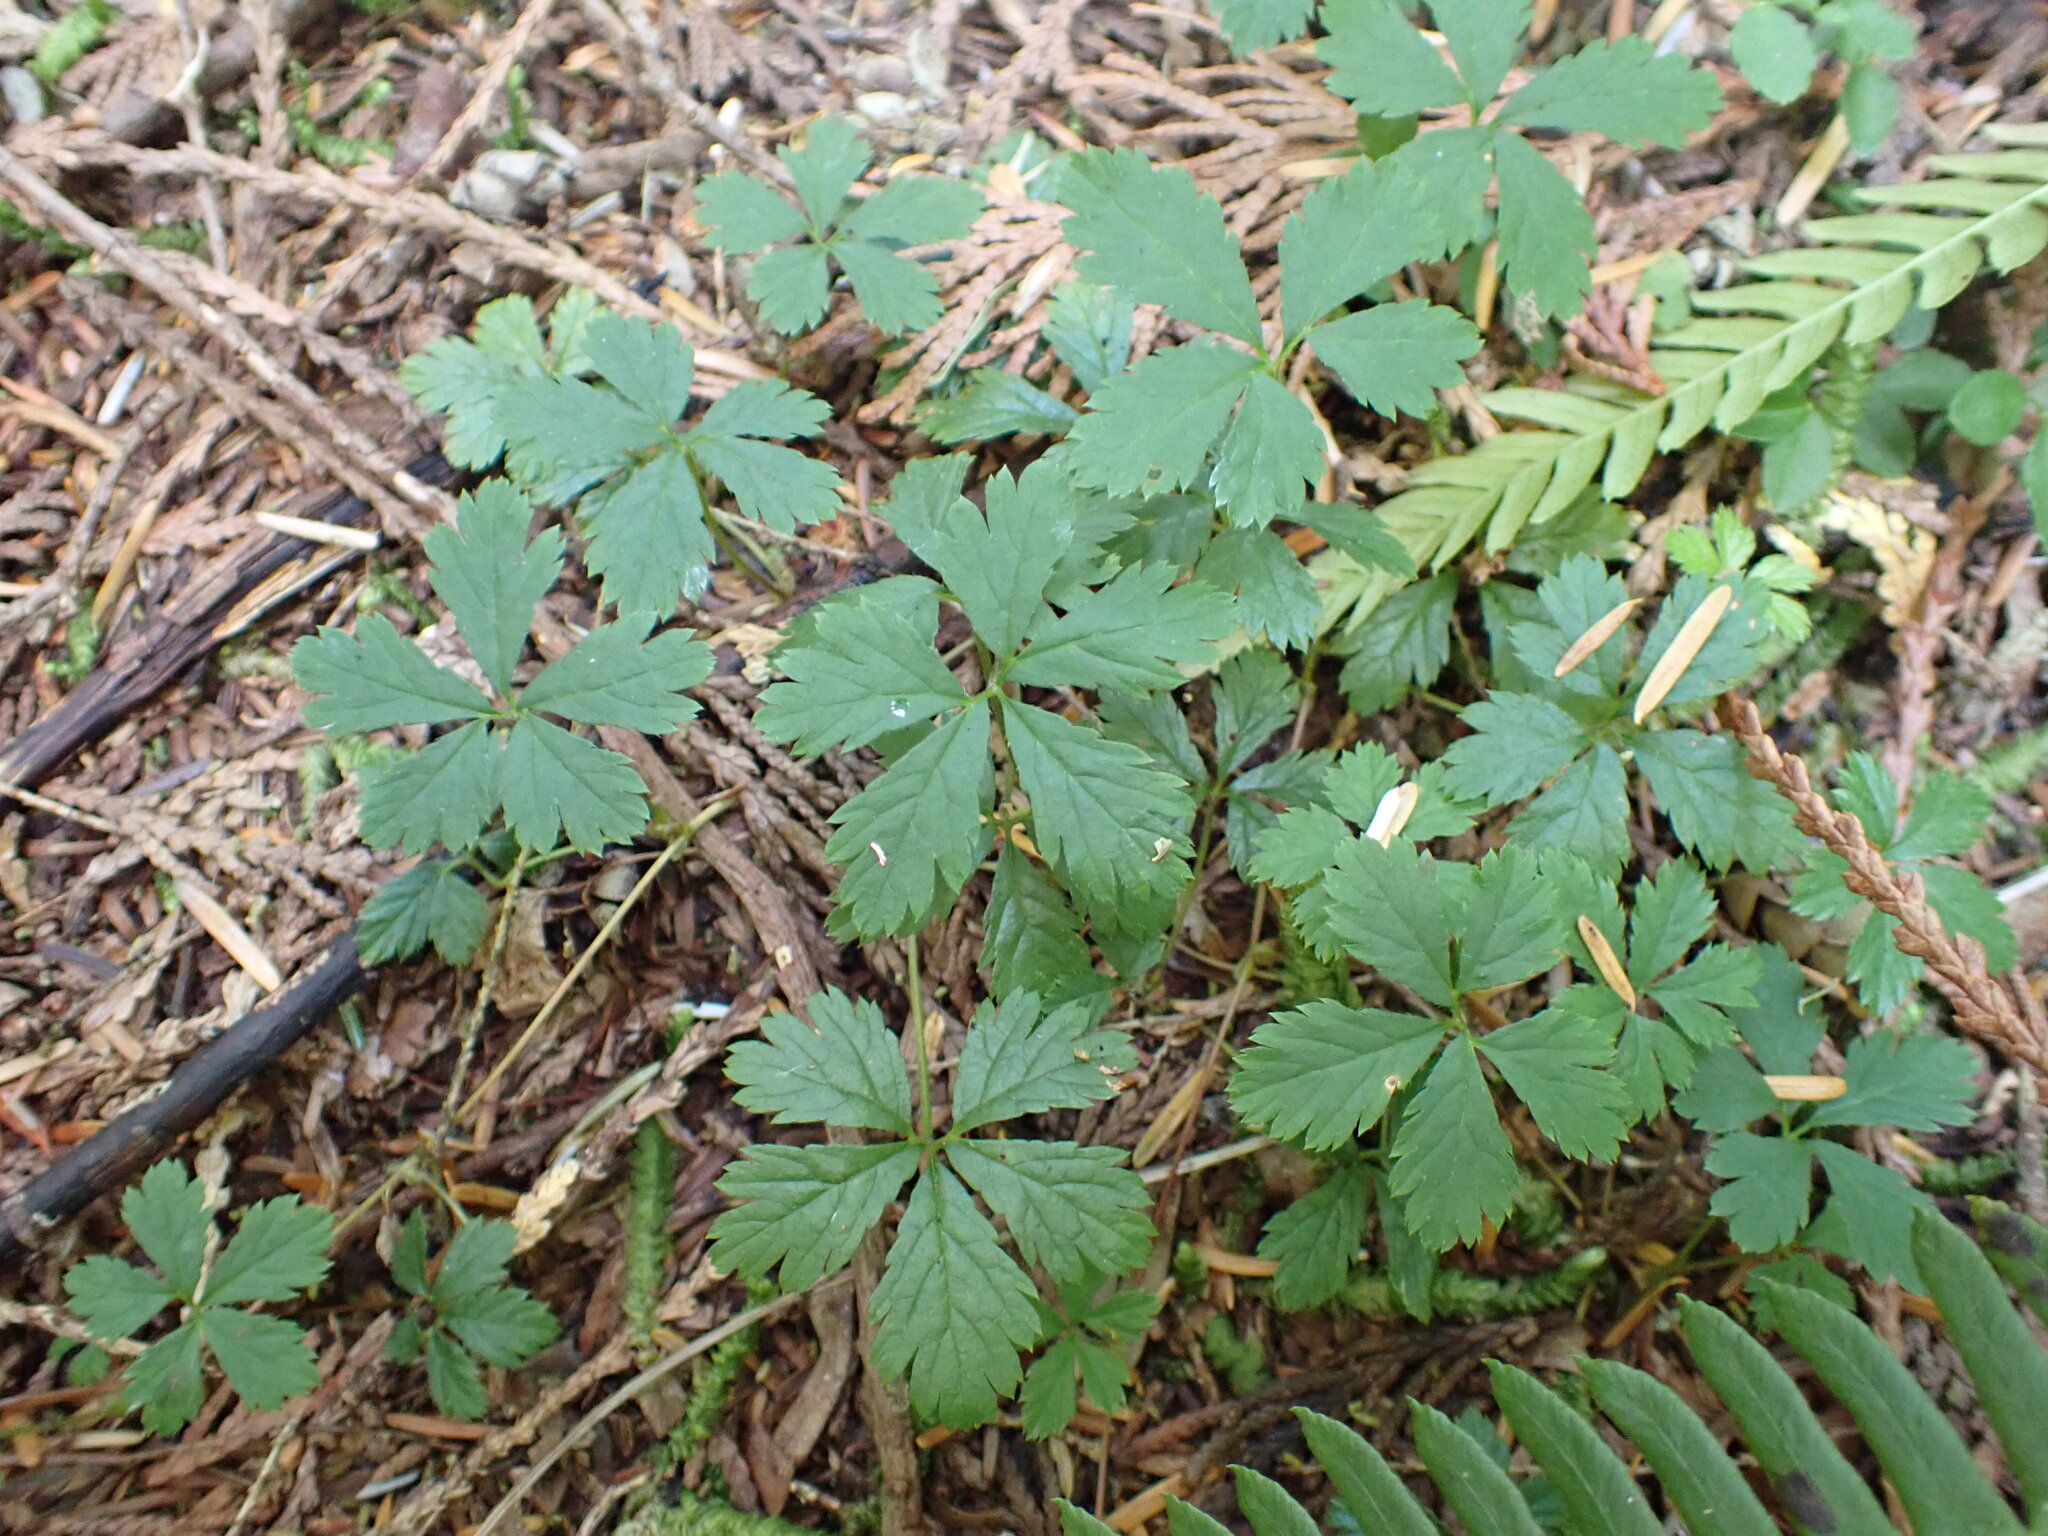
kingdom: Plantae
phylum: Tracheophyta
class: Magnoliopsida
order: Rosales
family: Rosaceae
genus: Rubus
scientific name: Rubus pedatus
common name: Creeping raspberry
